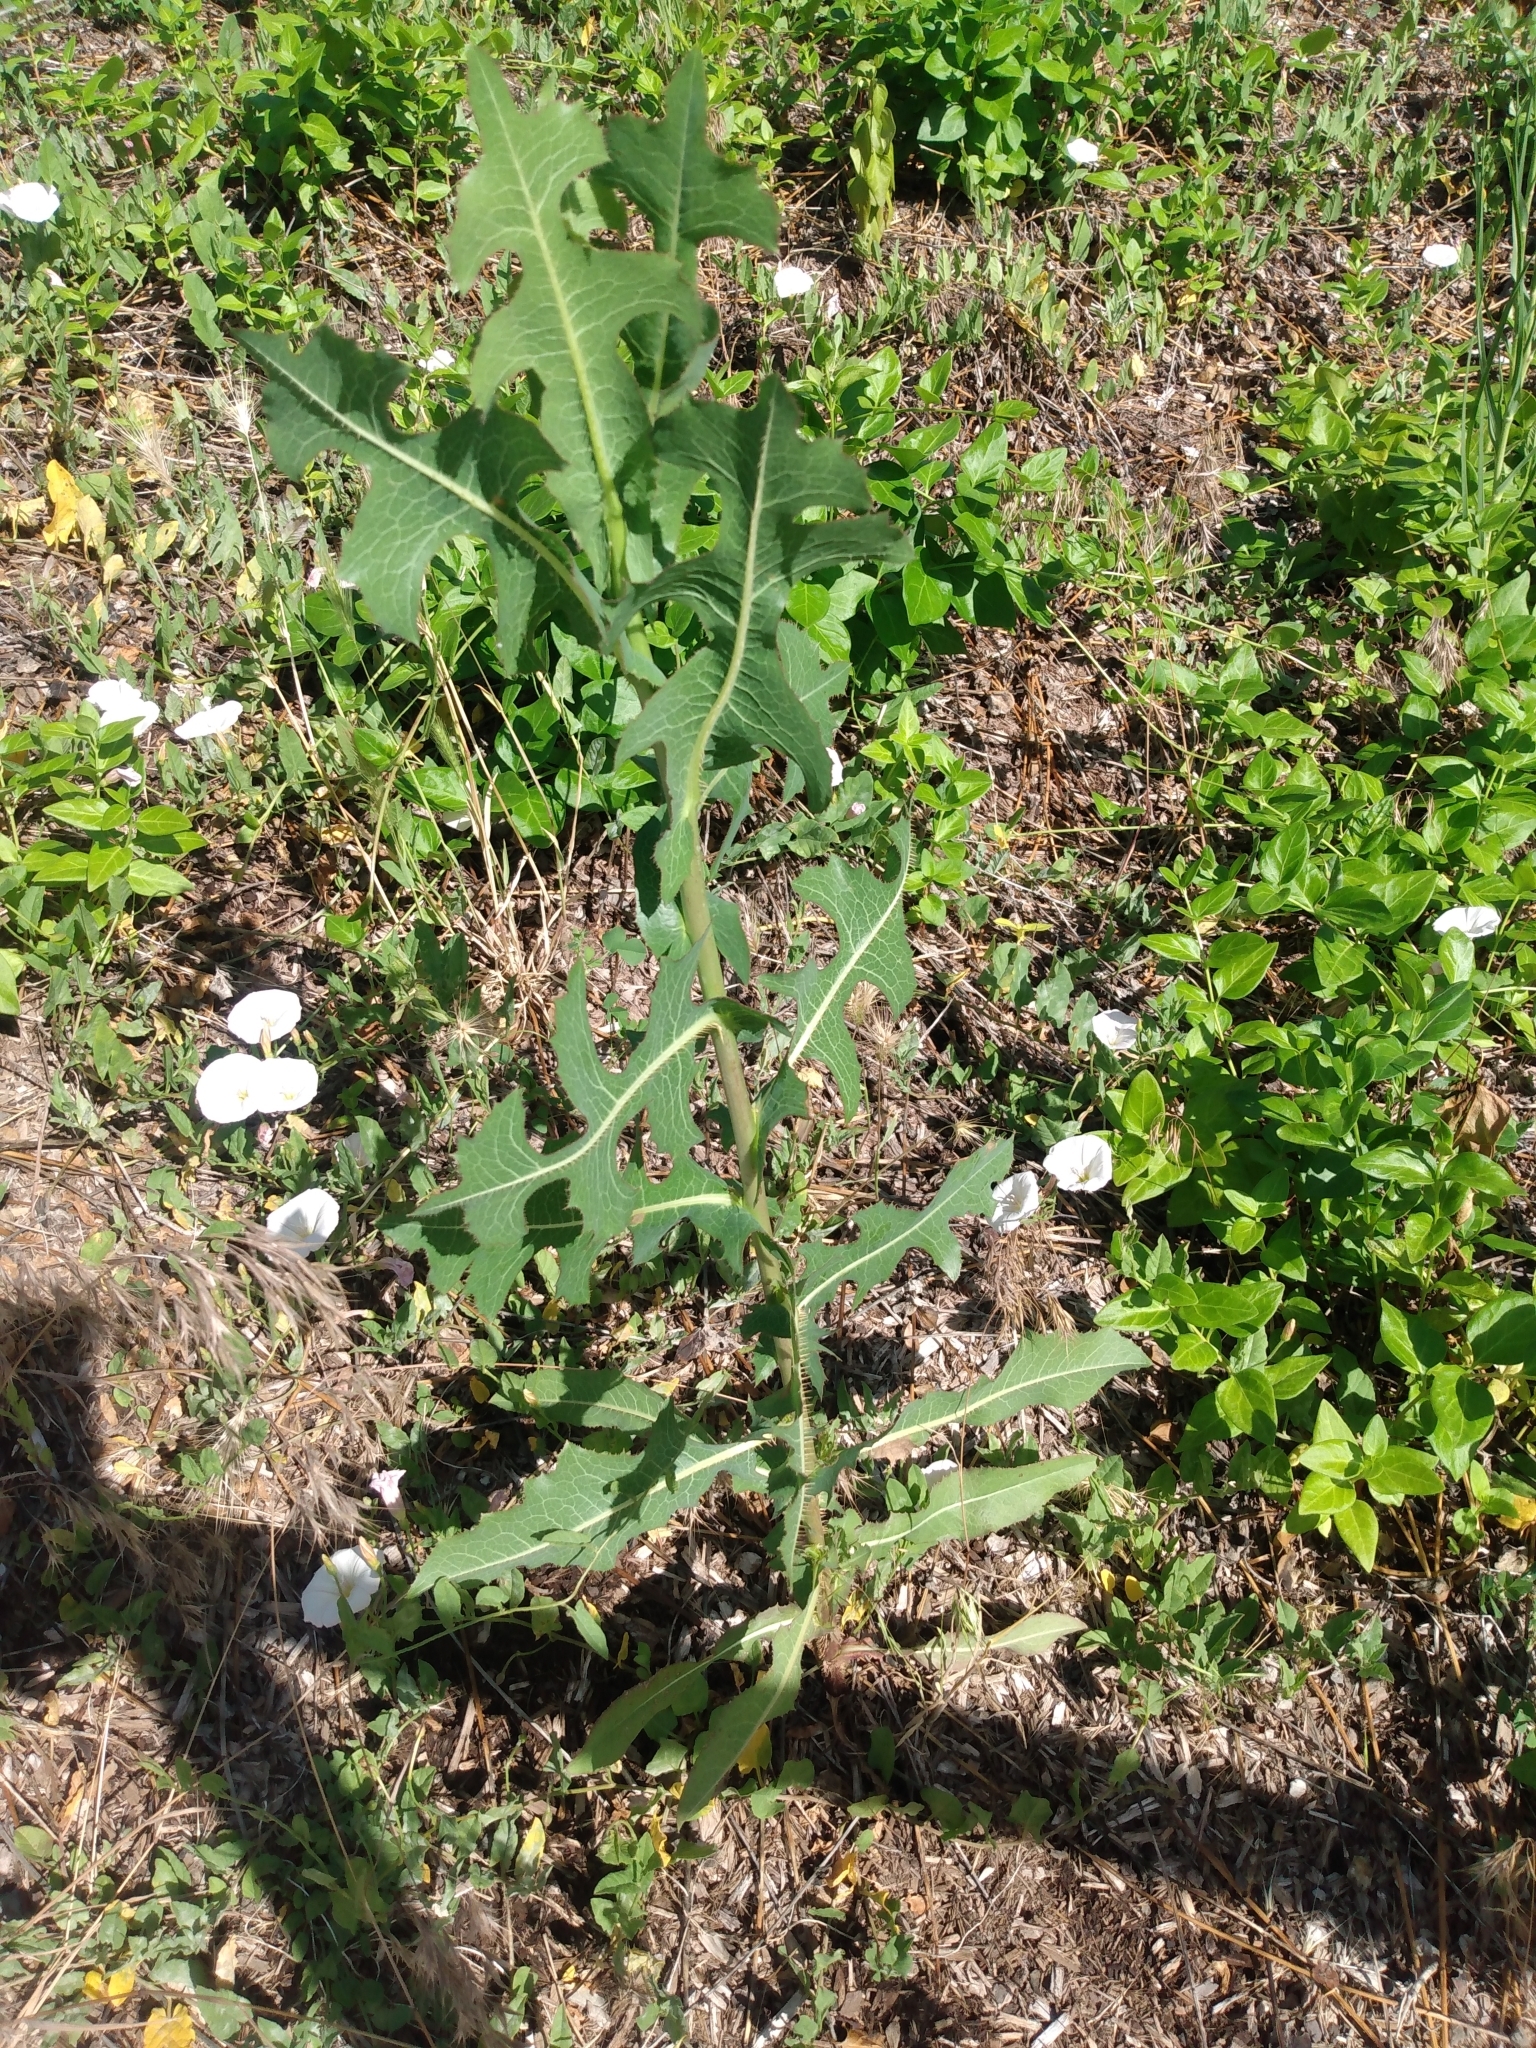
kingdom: Plantae
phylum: Tracheophyta
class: Magnoliopsida
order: Asterales
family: Asteraceae
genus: Lactuca
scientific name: Lactuca serriola
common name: Prickly lettuce
